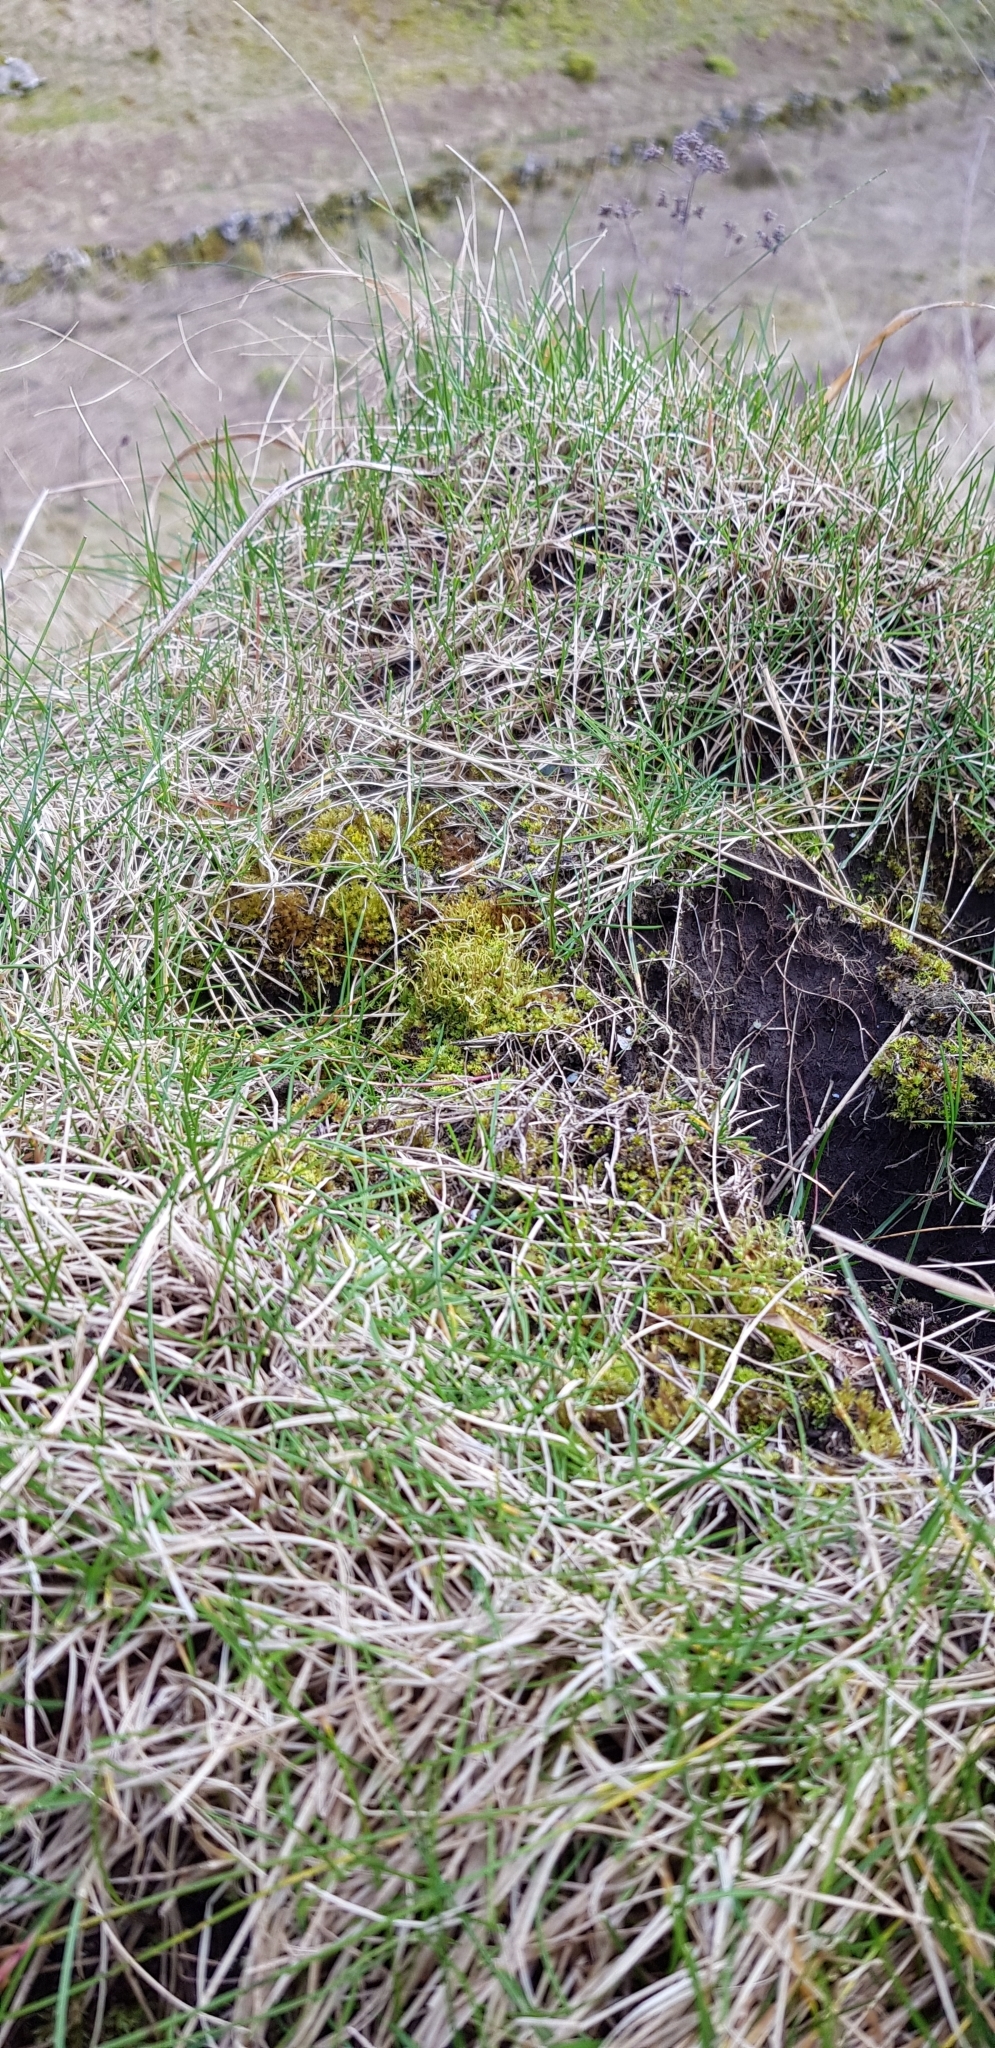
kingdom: Plantae
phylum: Bryophyta
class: Bryopsida
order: Bryales
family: Bryaceae
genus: Rosulabryum
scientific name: Rosulabryum rubens
